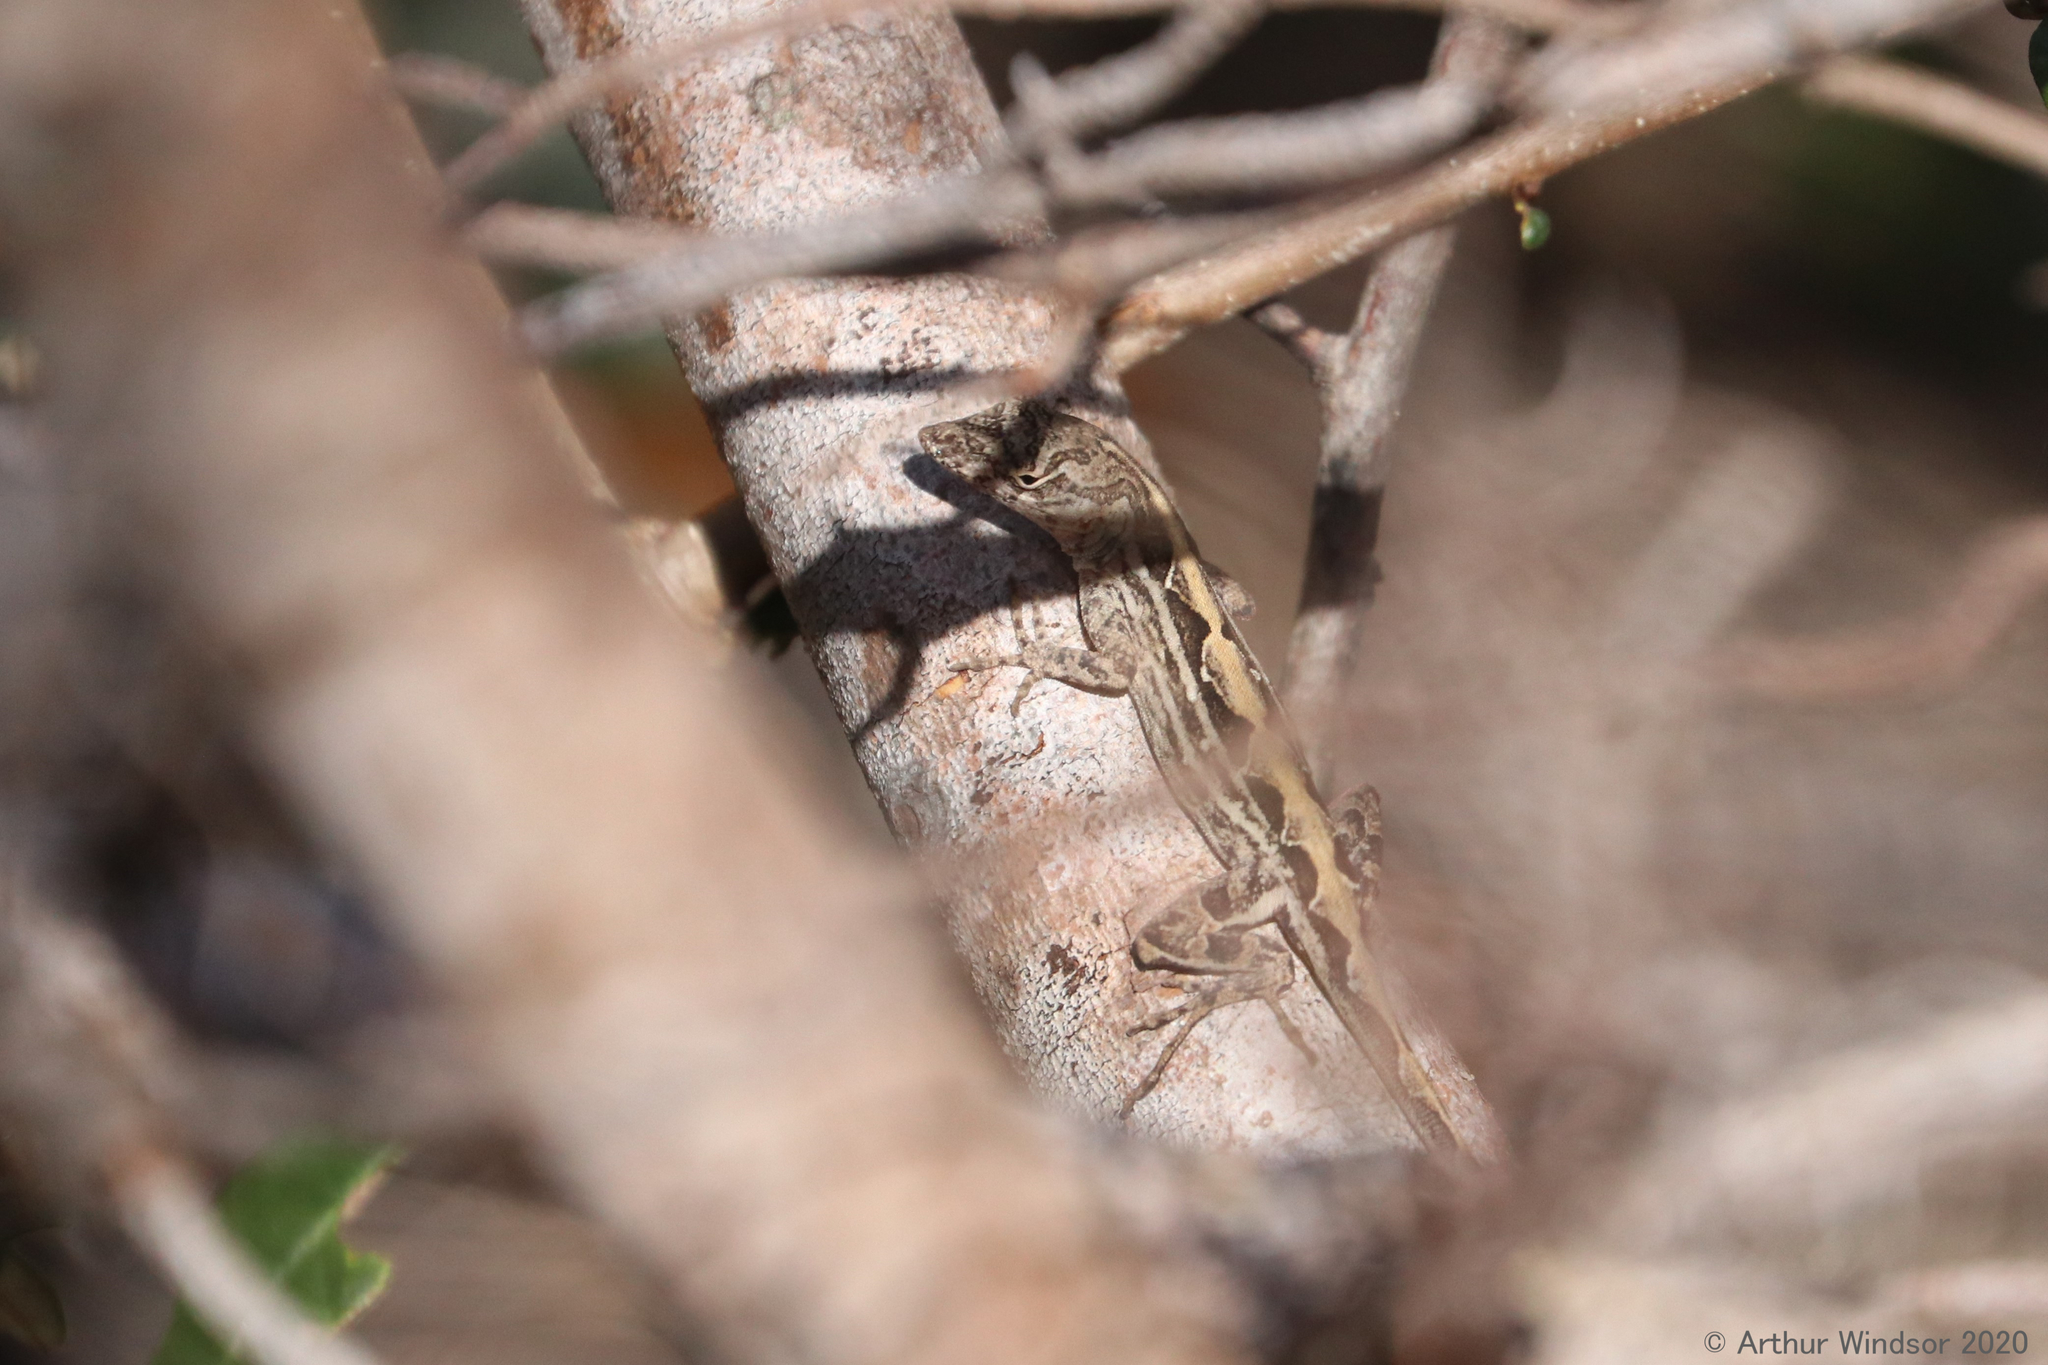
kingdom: Animalia
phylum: Chordata
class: Squamata
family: Dactyloidae
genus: Anolis
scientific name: Anolis sagrei
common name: Brown anole
